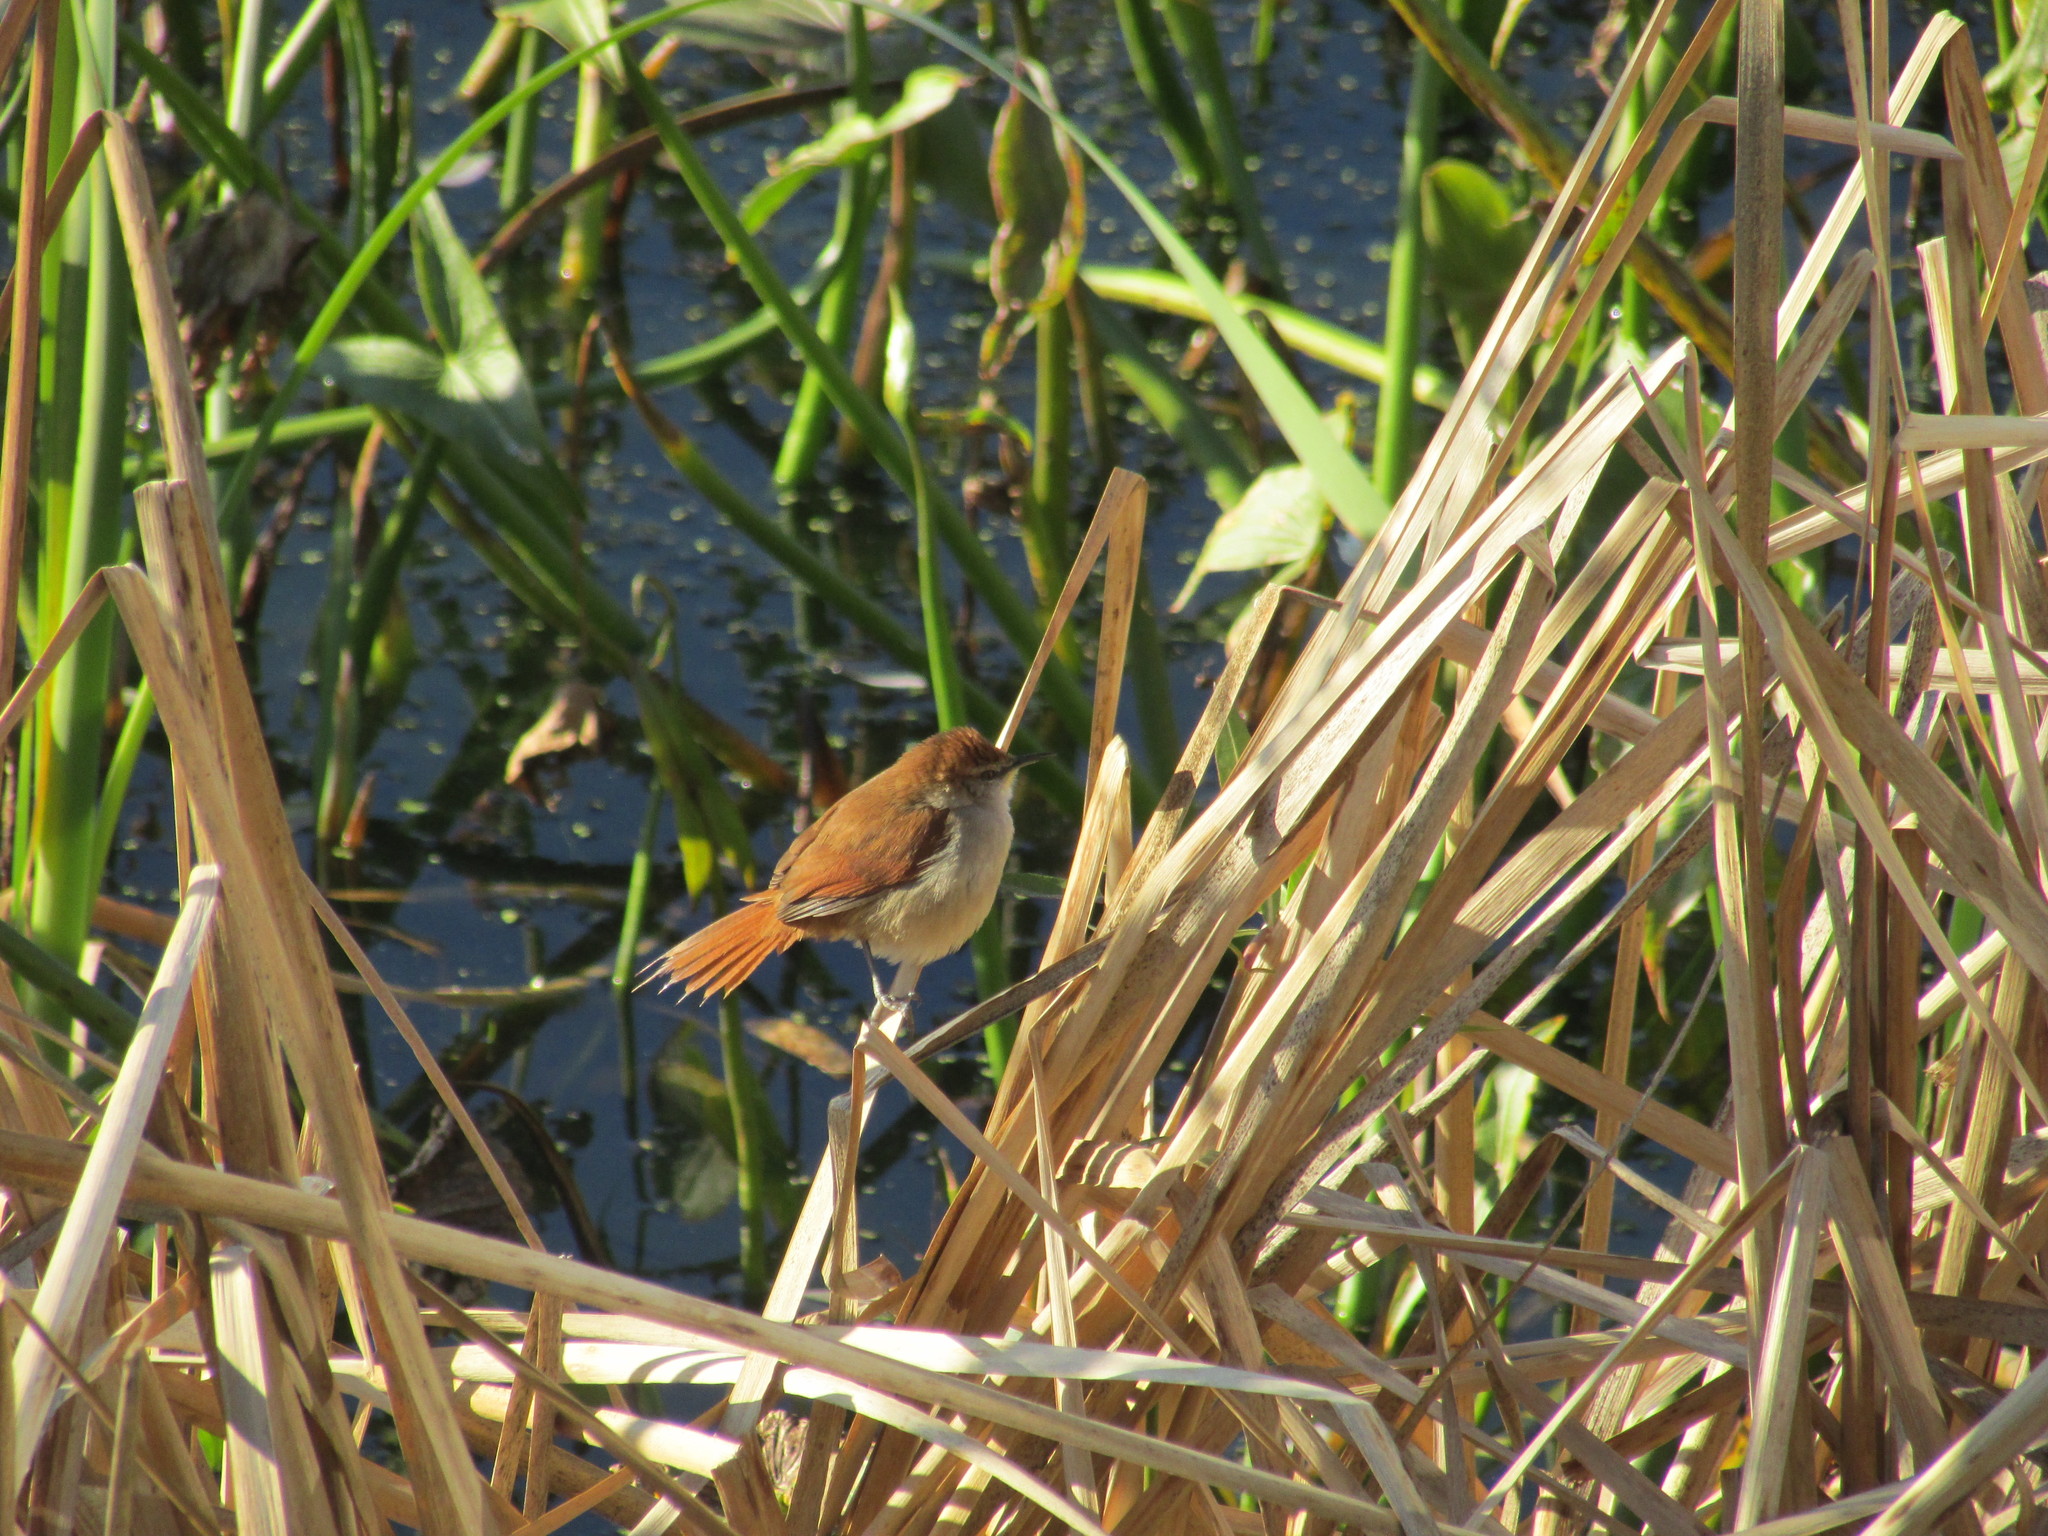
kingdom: Animalia
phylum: Chordata
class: Aves
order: Passeriformes
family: Furnariidae
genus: Certhiaxis
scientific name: Certhiaxis cinnamomeus
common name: Yellow-chinned spinetail
